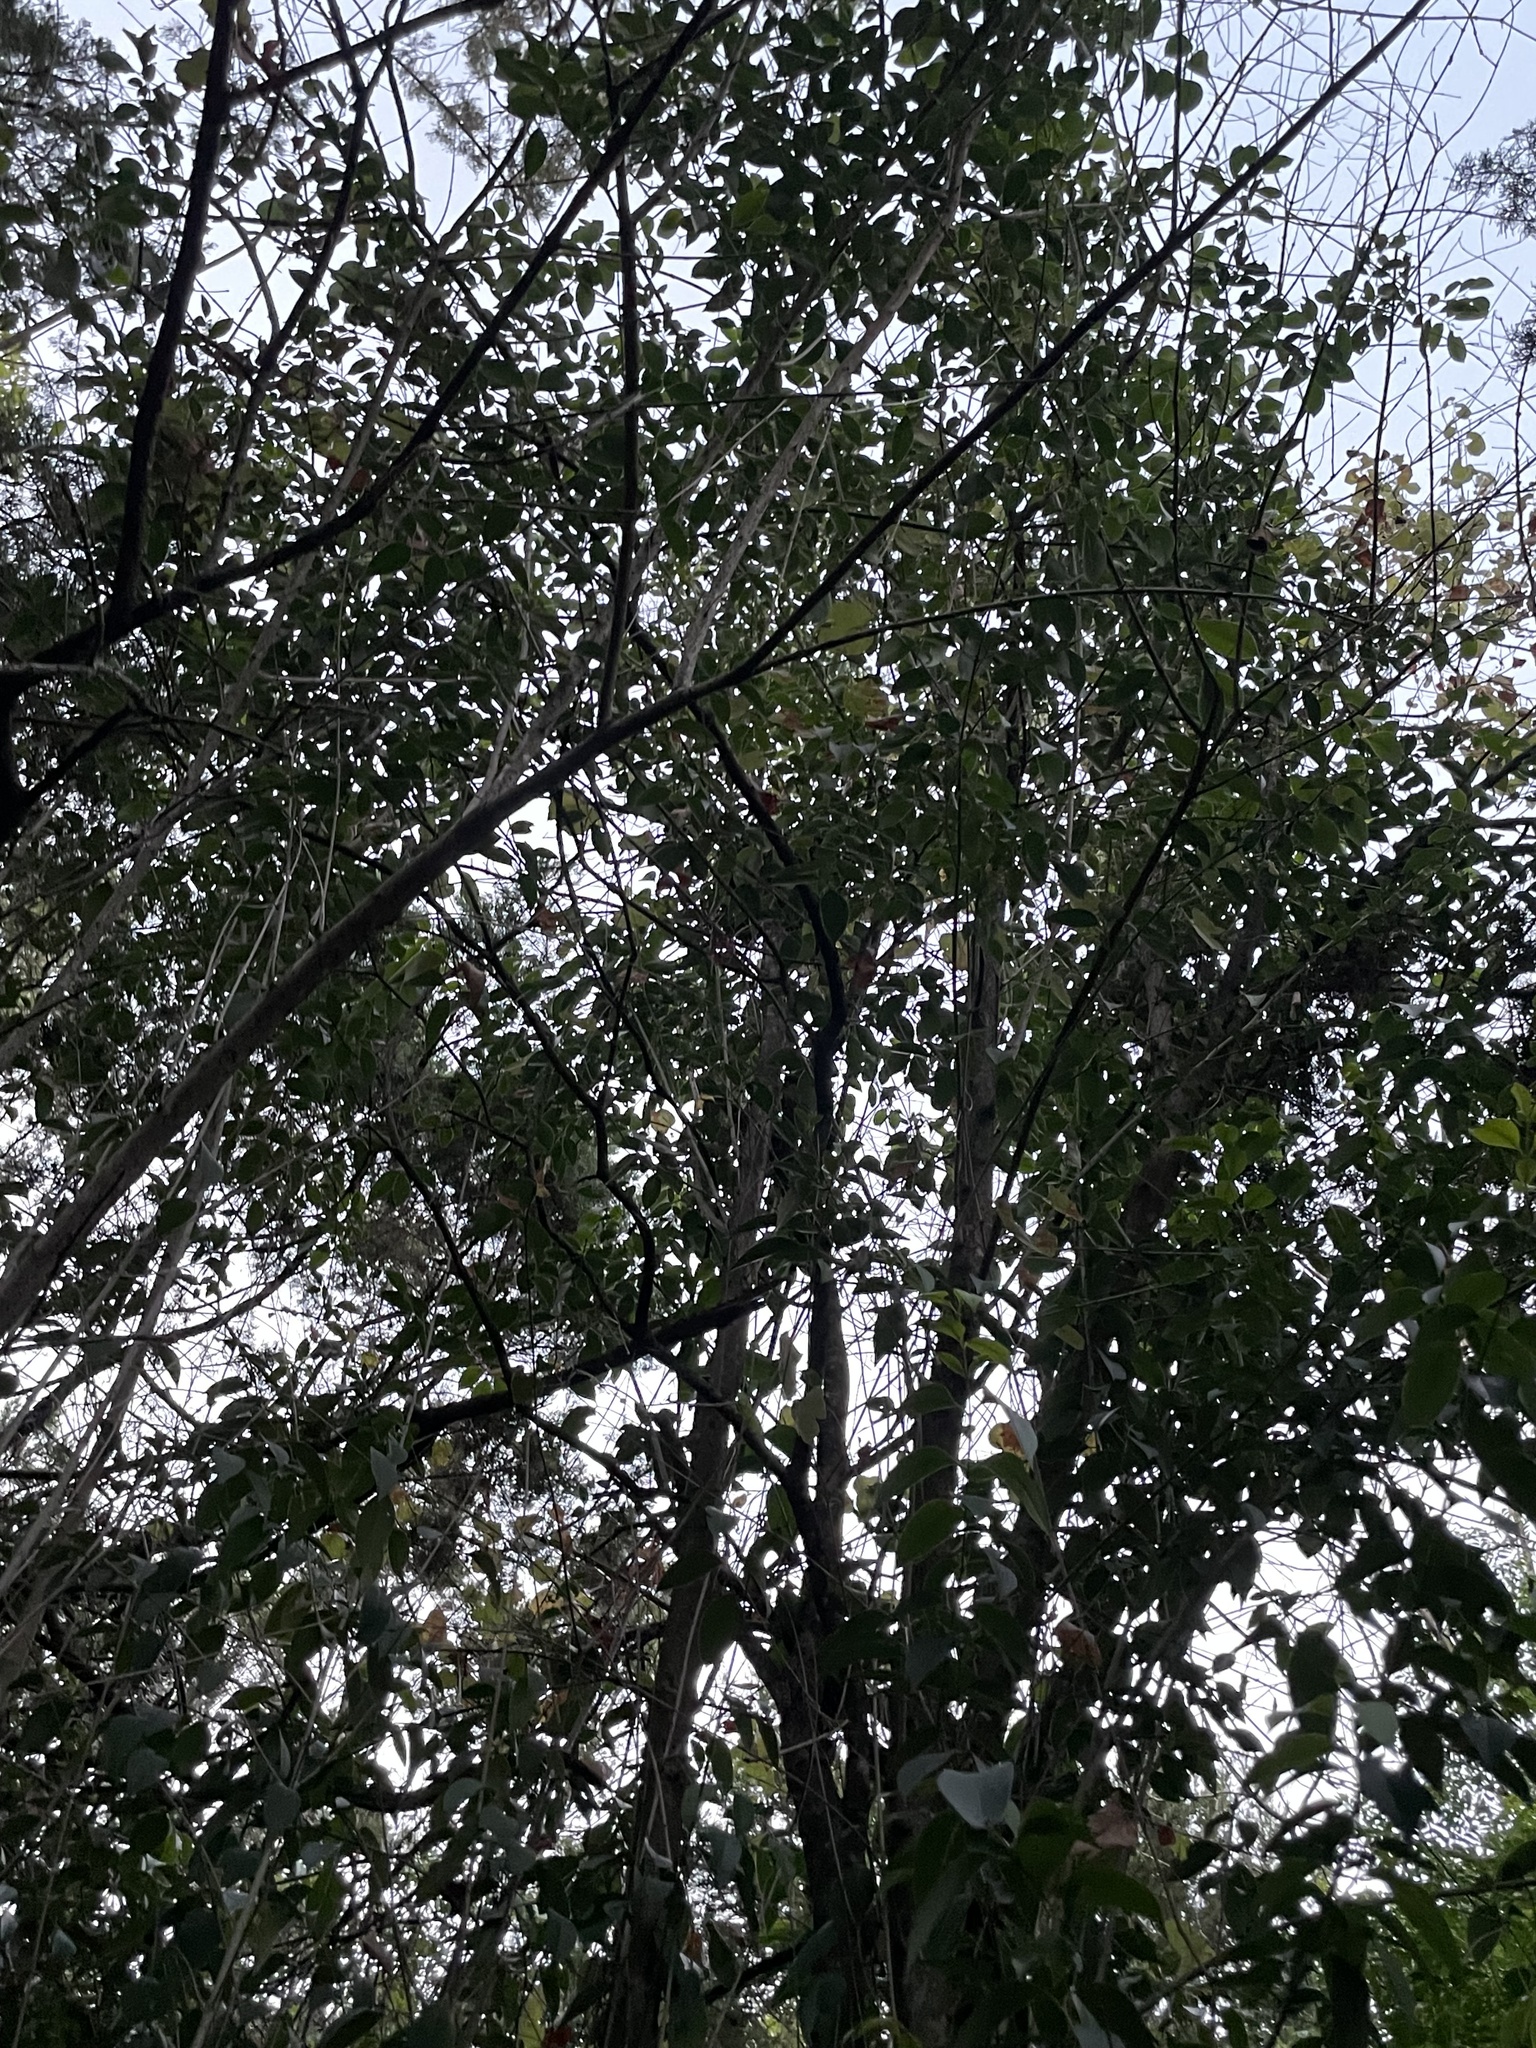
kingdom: Plantae
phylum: Tracheophyta
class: Magnoliopsida
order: Lamiales
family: Oleaceae
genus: Ligustrum
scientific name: Ligustrum lucidum
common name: Glossy privet
